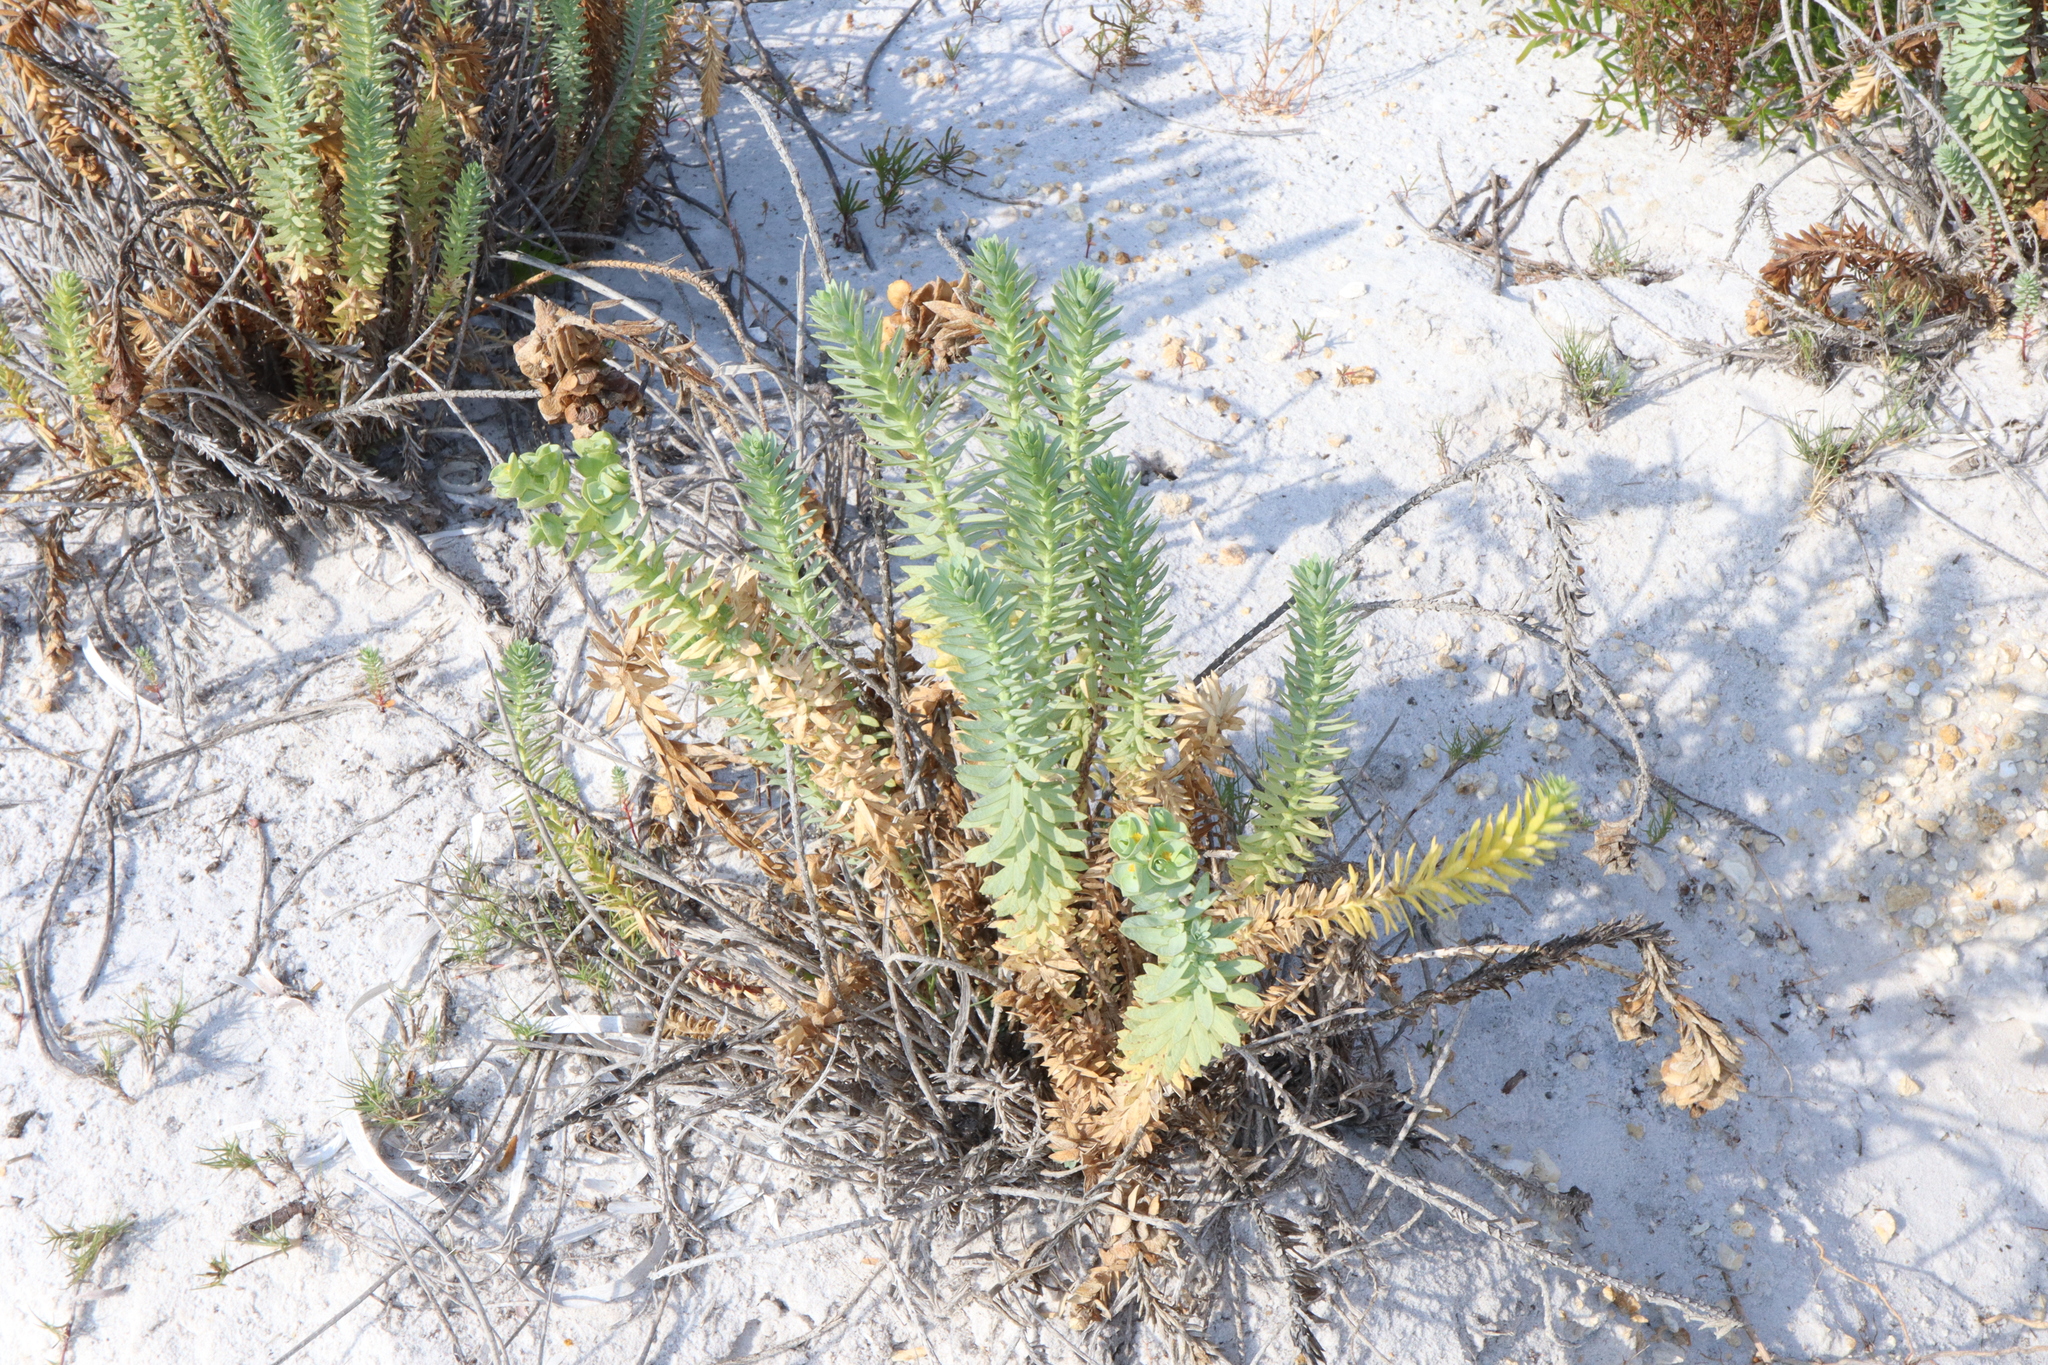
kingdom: Plantae
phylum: Tracheophyta
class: Magnoliopsida
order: Malpighiales
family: Euphorbiaceae
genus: Euphorbia
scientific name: Euphorbia paralias
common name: Sea spurge
